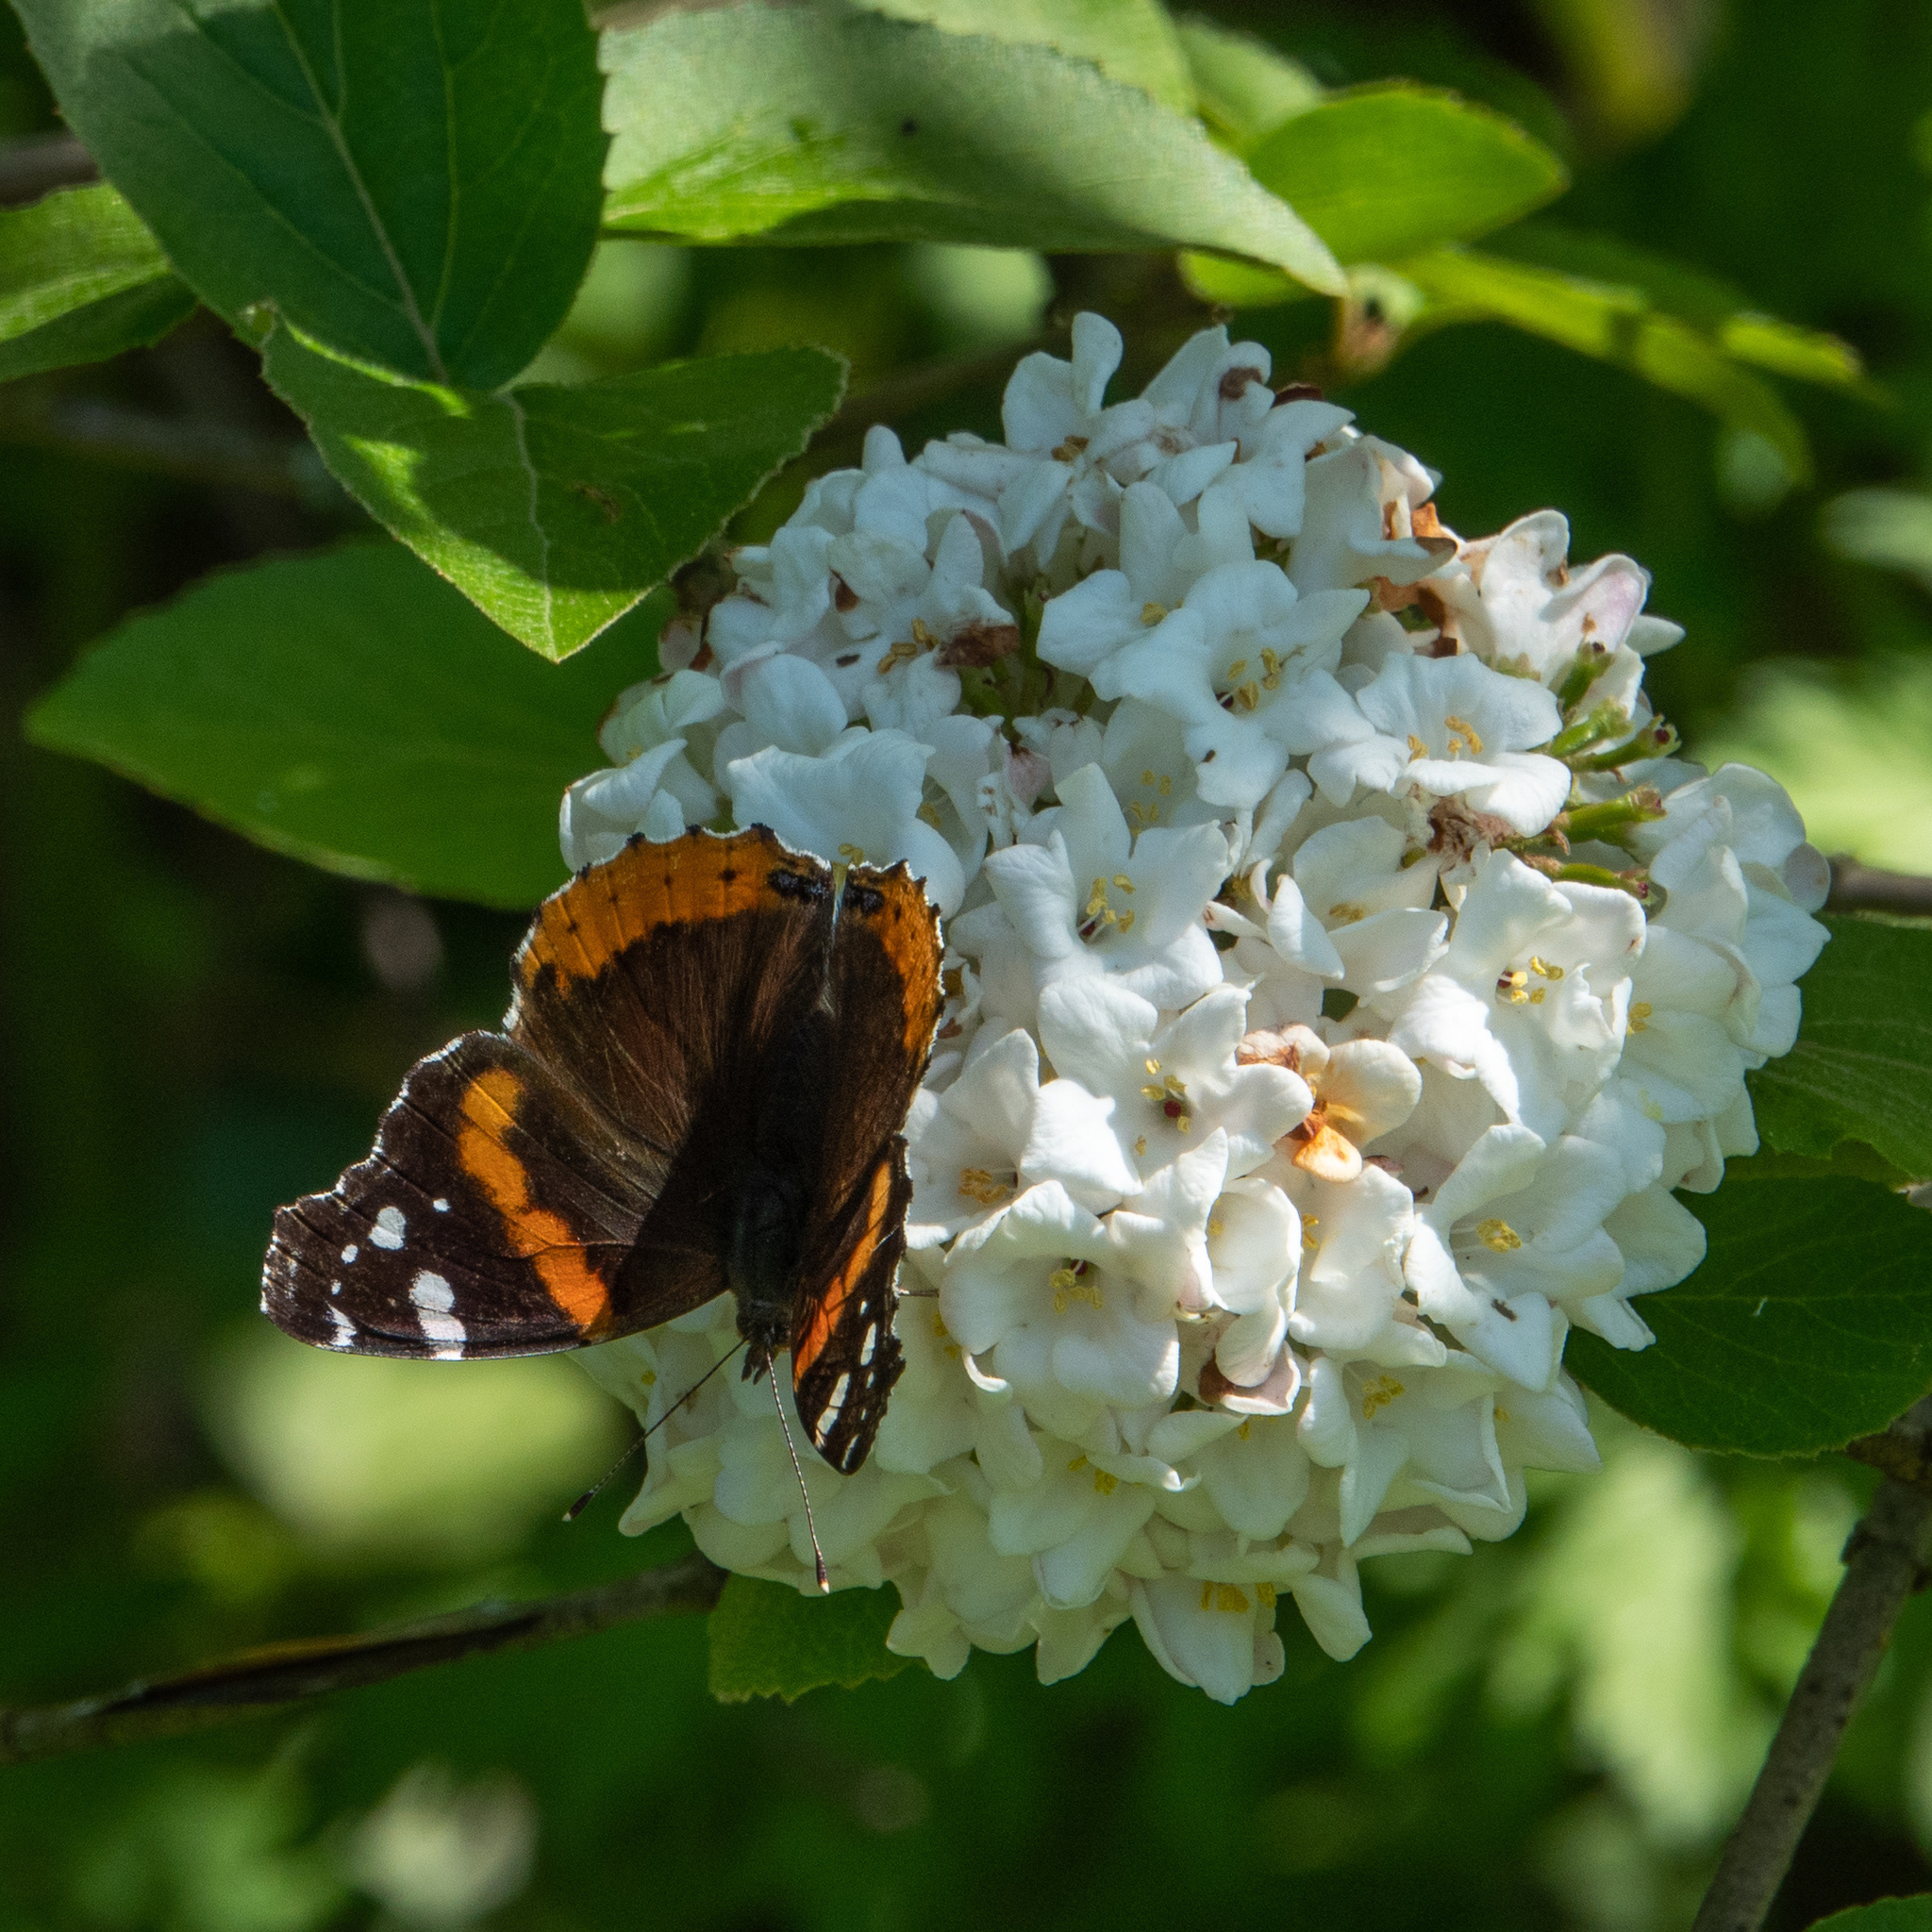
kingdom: Animalia
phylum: Arthropoda
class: Insecta
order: Lepidoptera
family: Nymphalidae
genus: Vanessa
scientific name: Vanessa atalanta
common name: Red admiral
